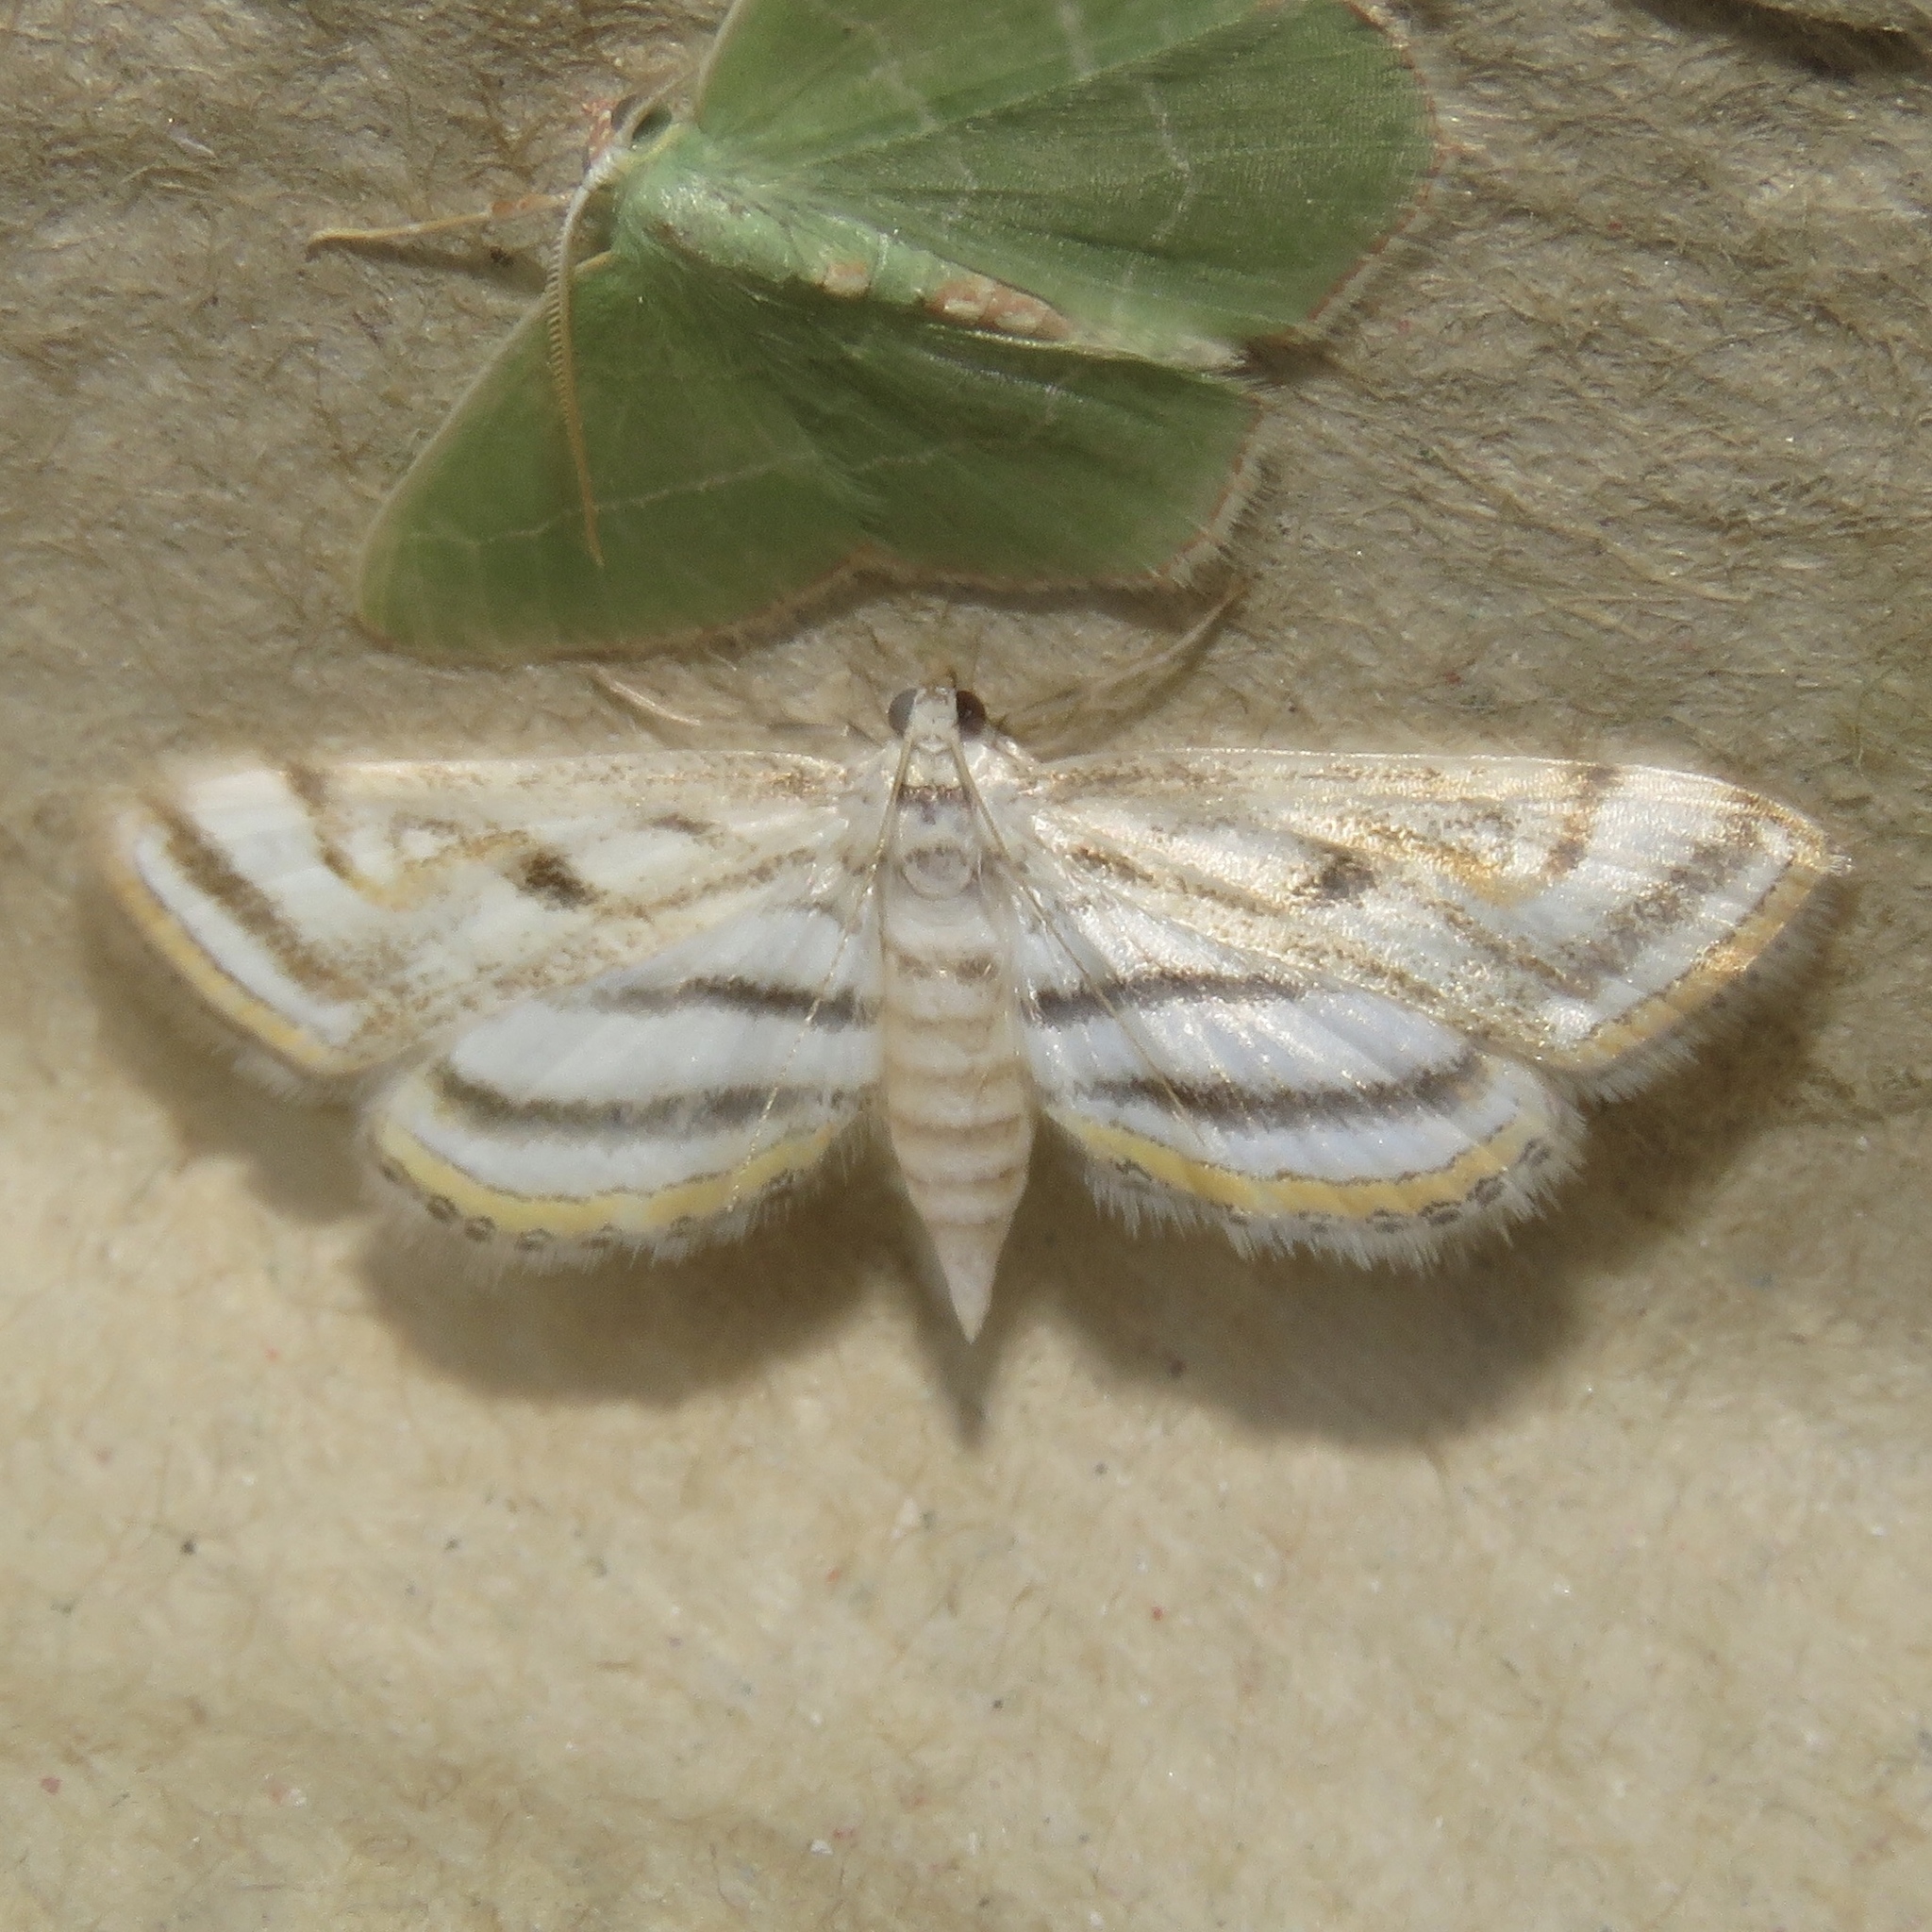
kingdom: Animalia
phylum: Arthropoda
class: Insecta
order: Lepidoptera
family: Crambidae
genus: Parapoynx
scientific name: Parapoynx badiusalis
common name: Chestnut-marked pondweed moth
